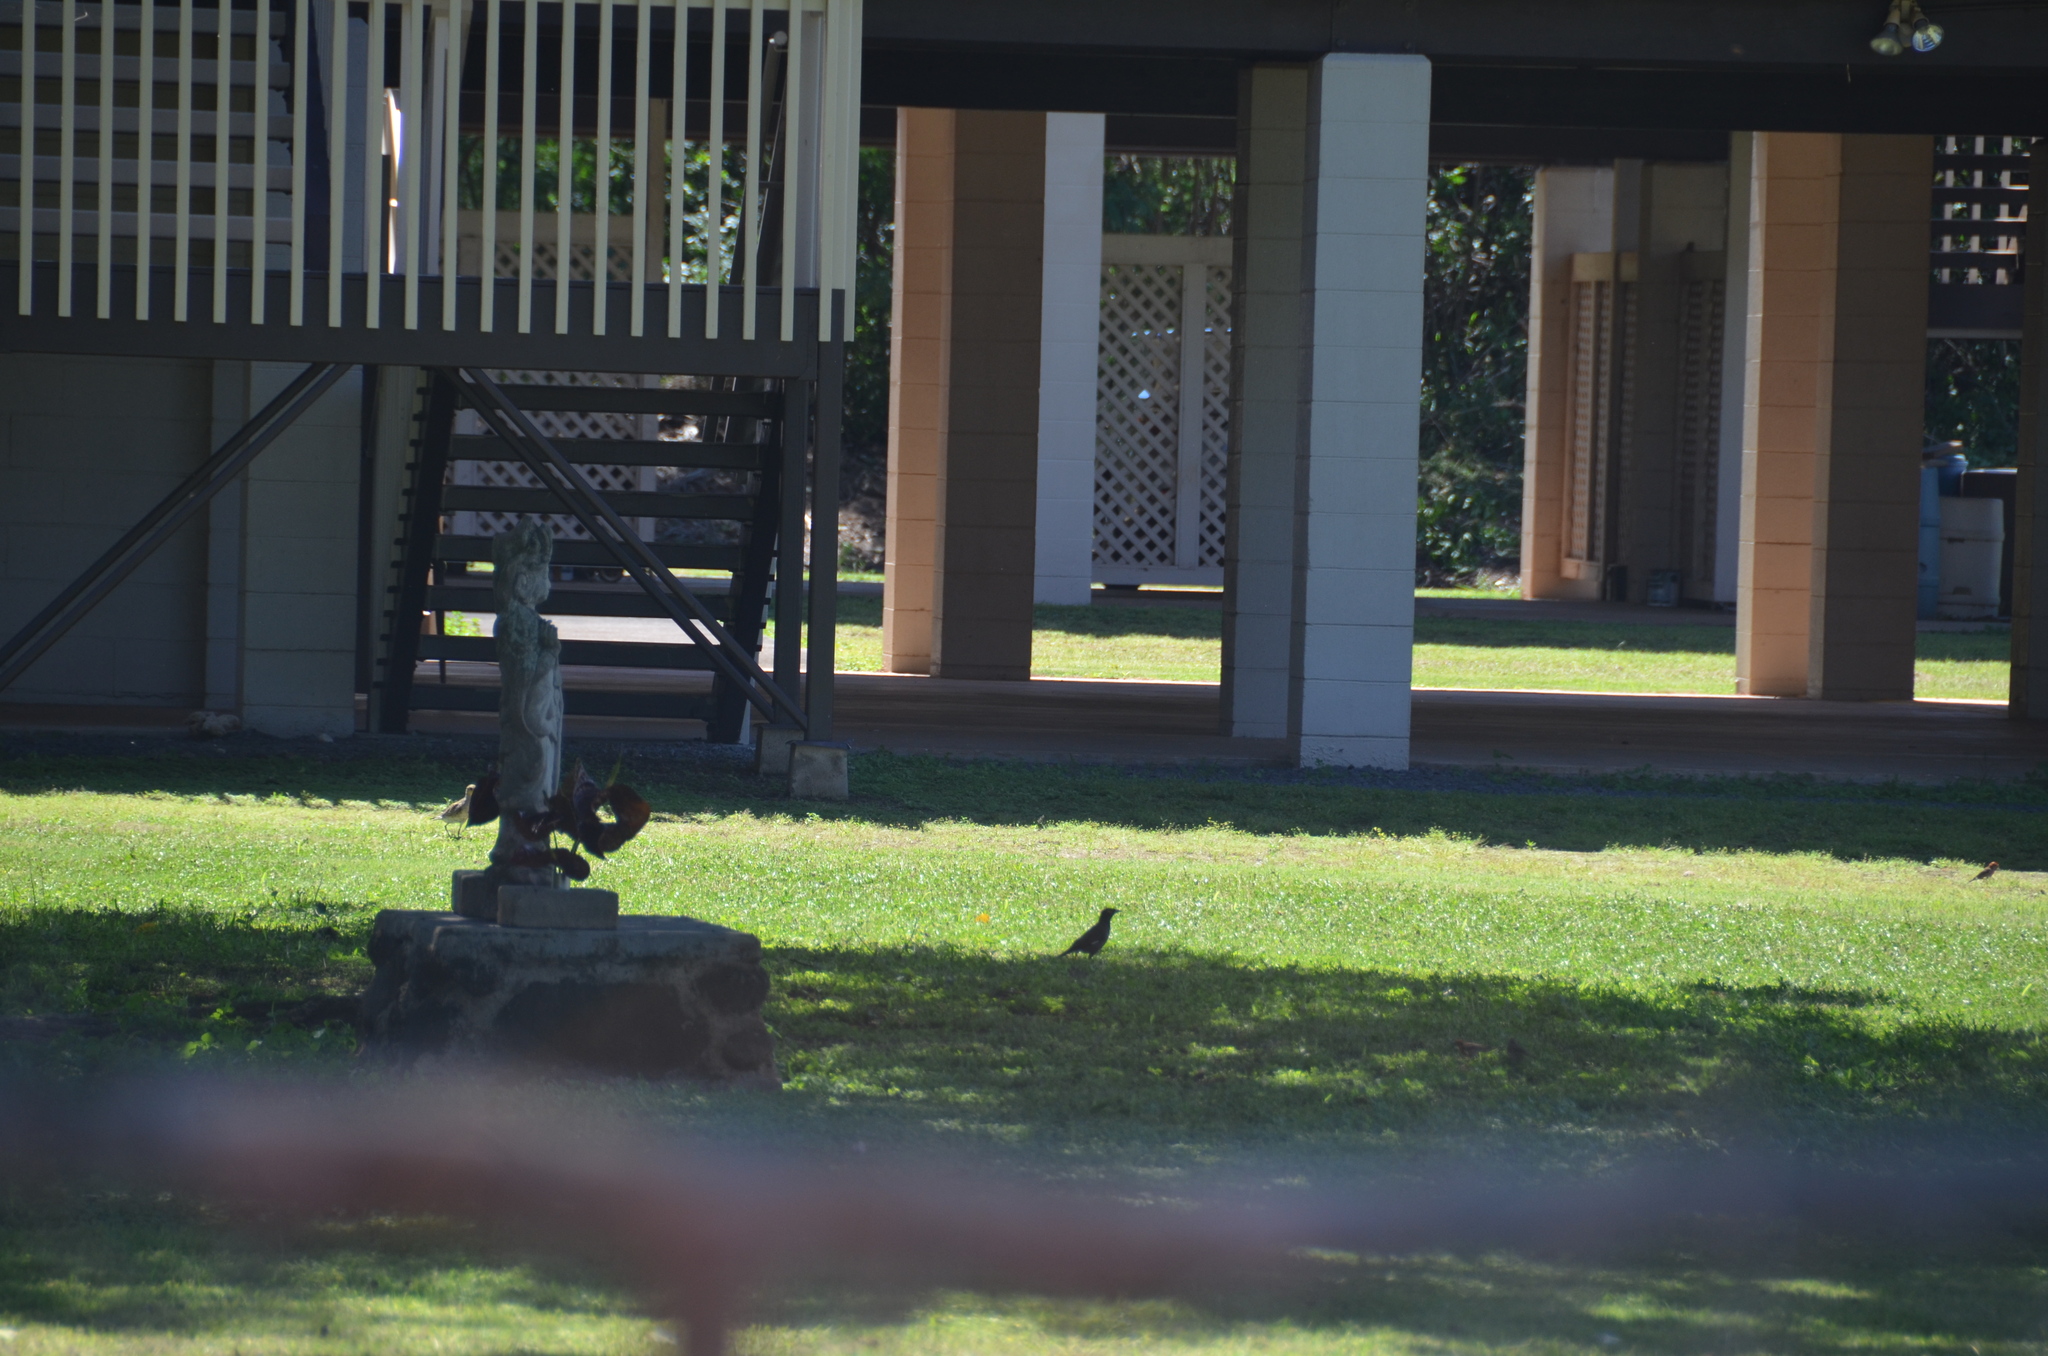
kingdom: Animalia
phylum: Chordata
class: Aves
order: Charadriiformes
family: Charadriidae
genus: Pluvialis
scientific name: Pluvialis fulva
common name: Pacific golden plover
